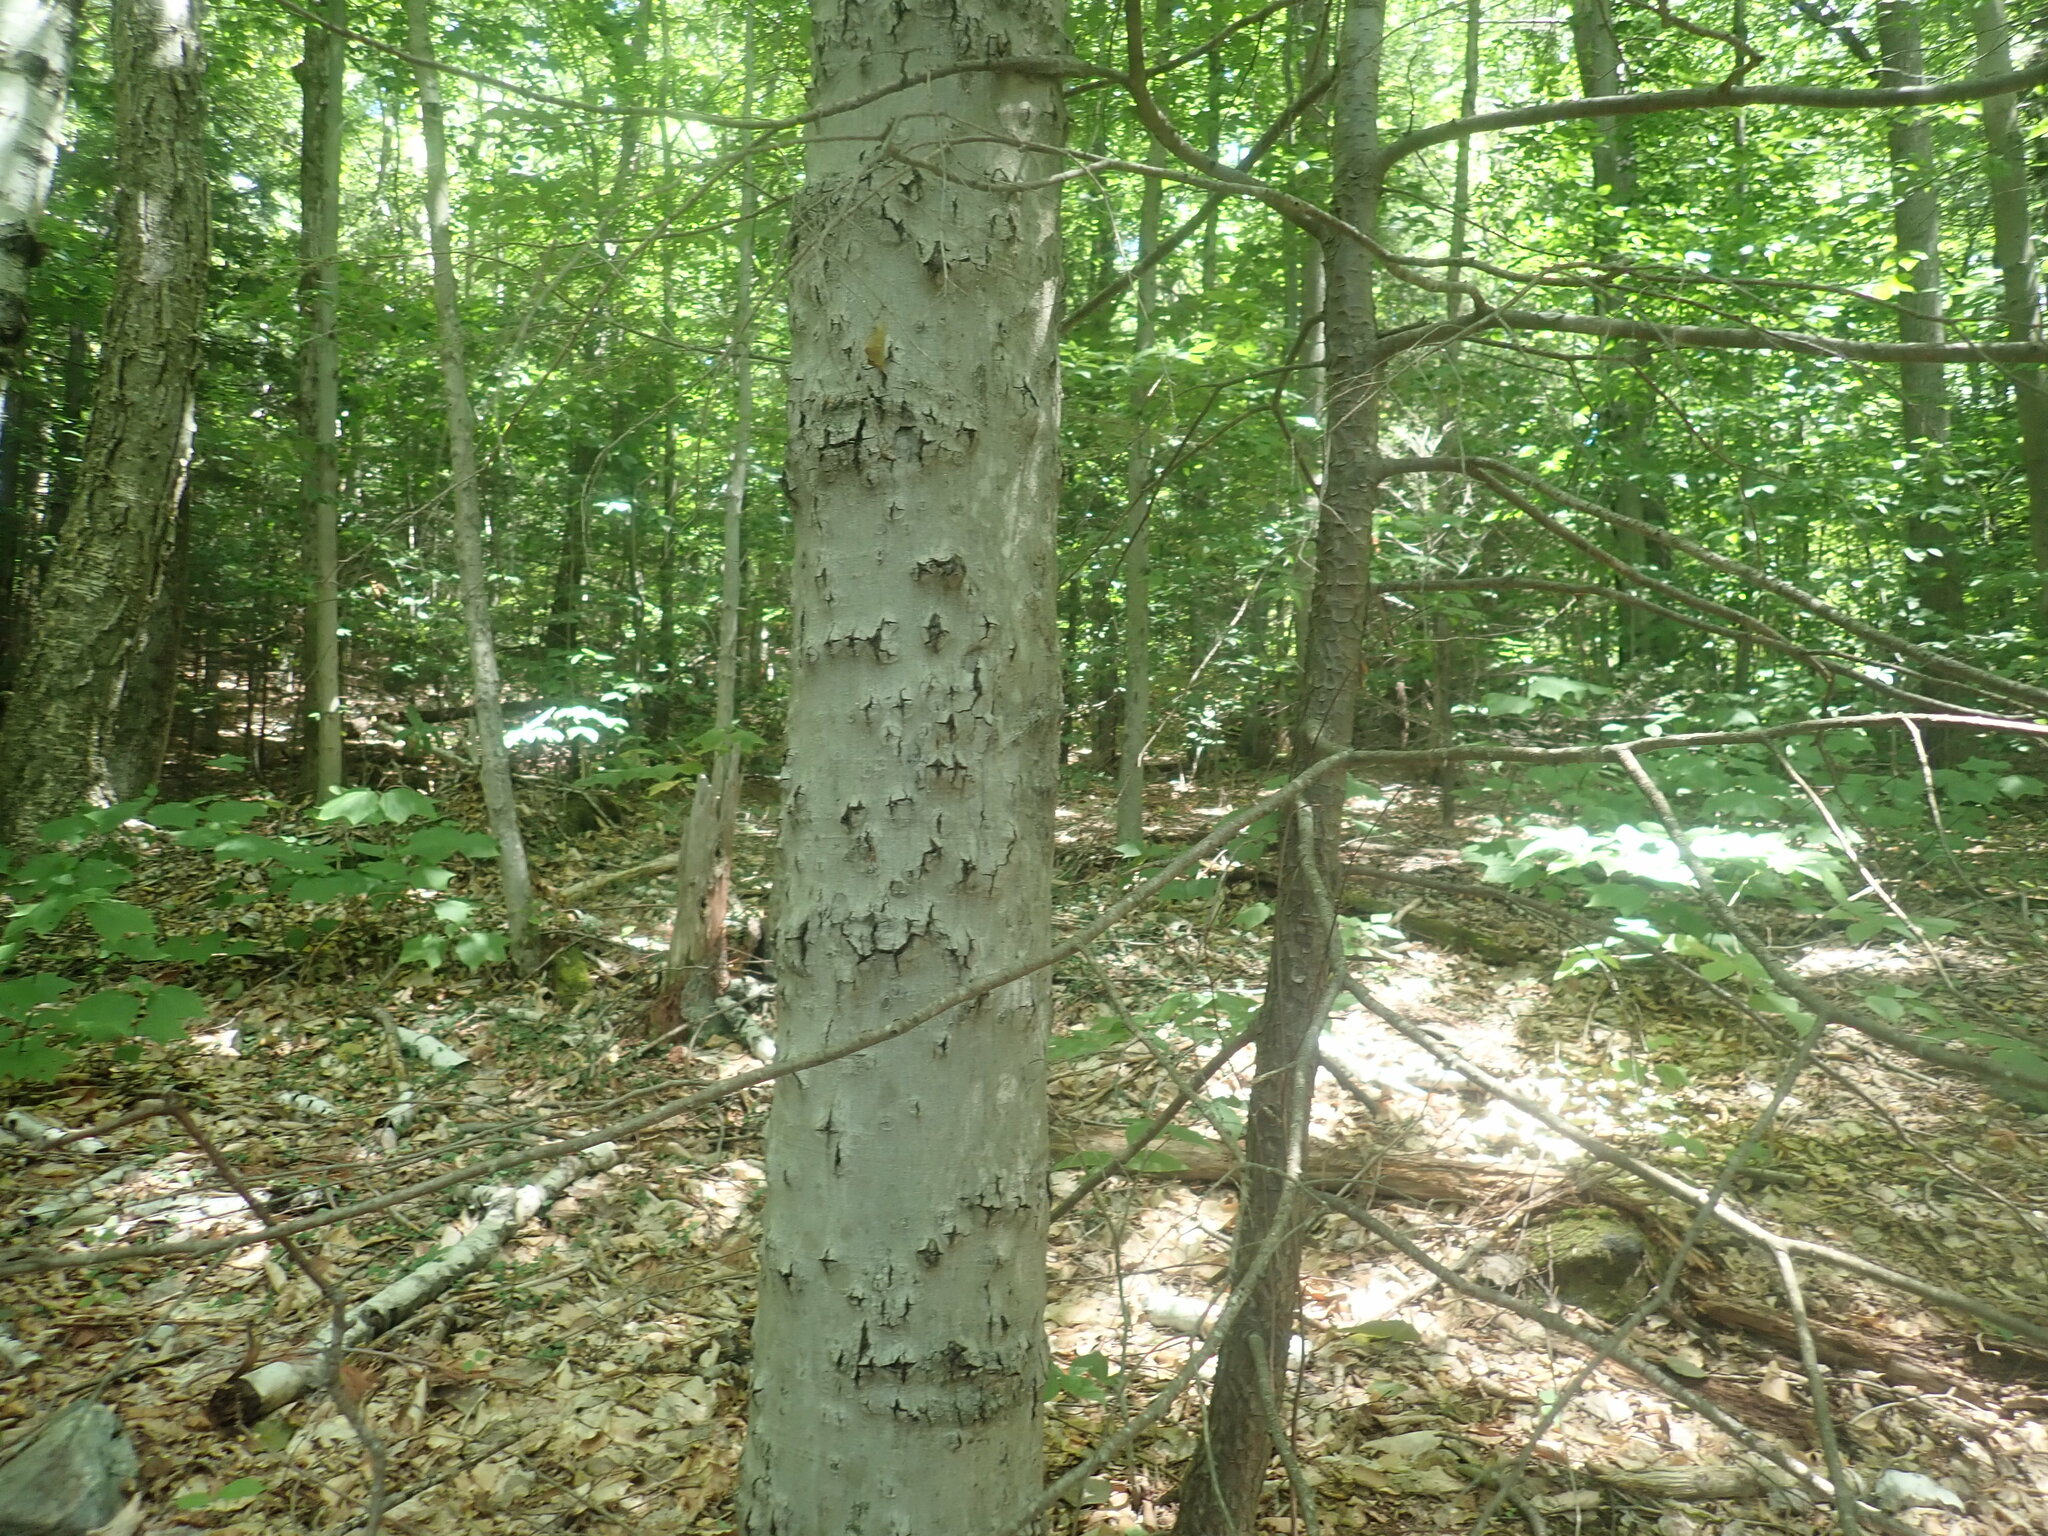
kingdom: Fungi
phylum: Ascomycota
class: Sordariomycetes
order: Hypocreales
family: Nectriaceae
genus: Neonectria
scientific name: Neonectria faginata
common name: Beech bark canker
